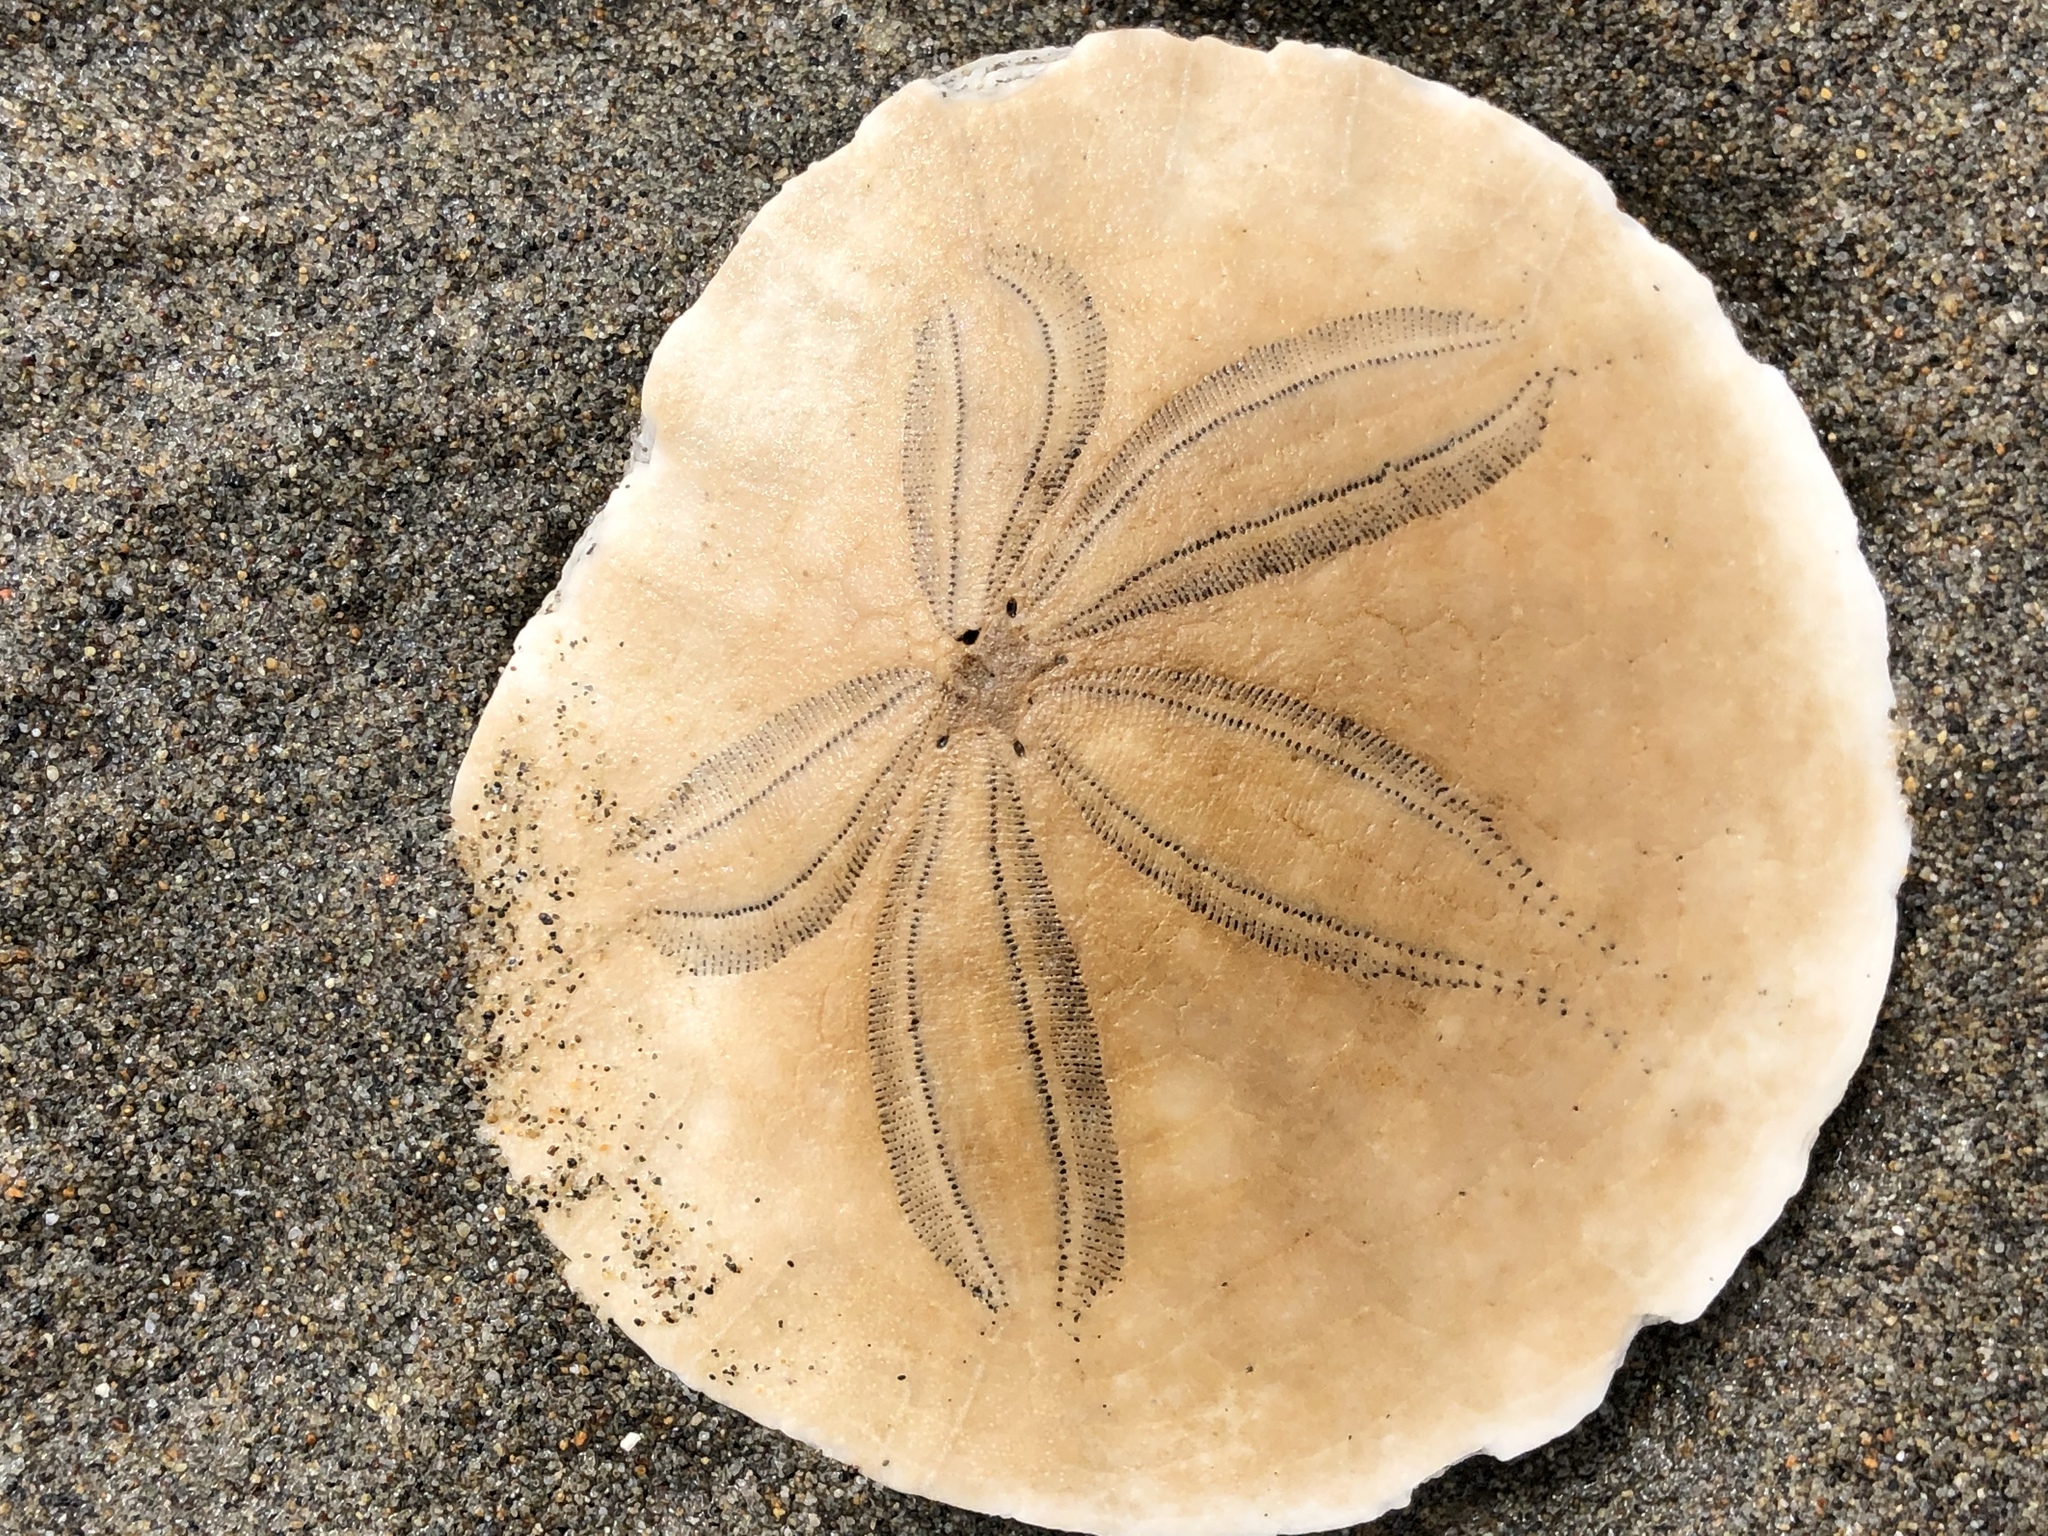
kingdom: Animalia
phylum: Echinodermata
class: Echinoidea
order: Echinolampadacea
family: Dendrasteridae
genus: Dendraster
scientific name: Dendraster excentricus
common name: Eccentric sand dollar sea urchin
